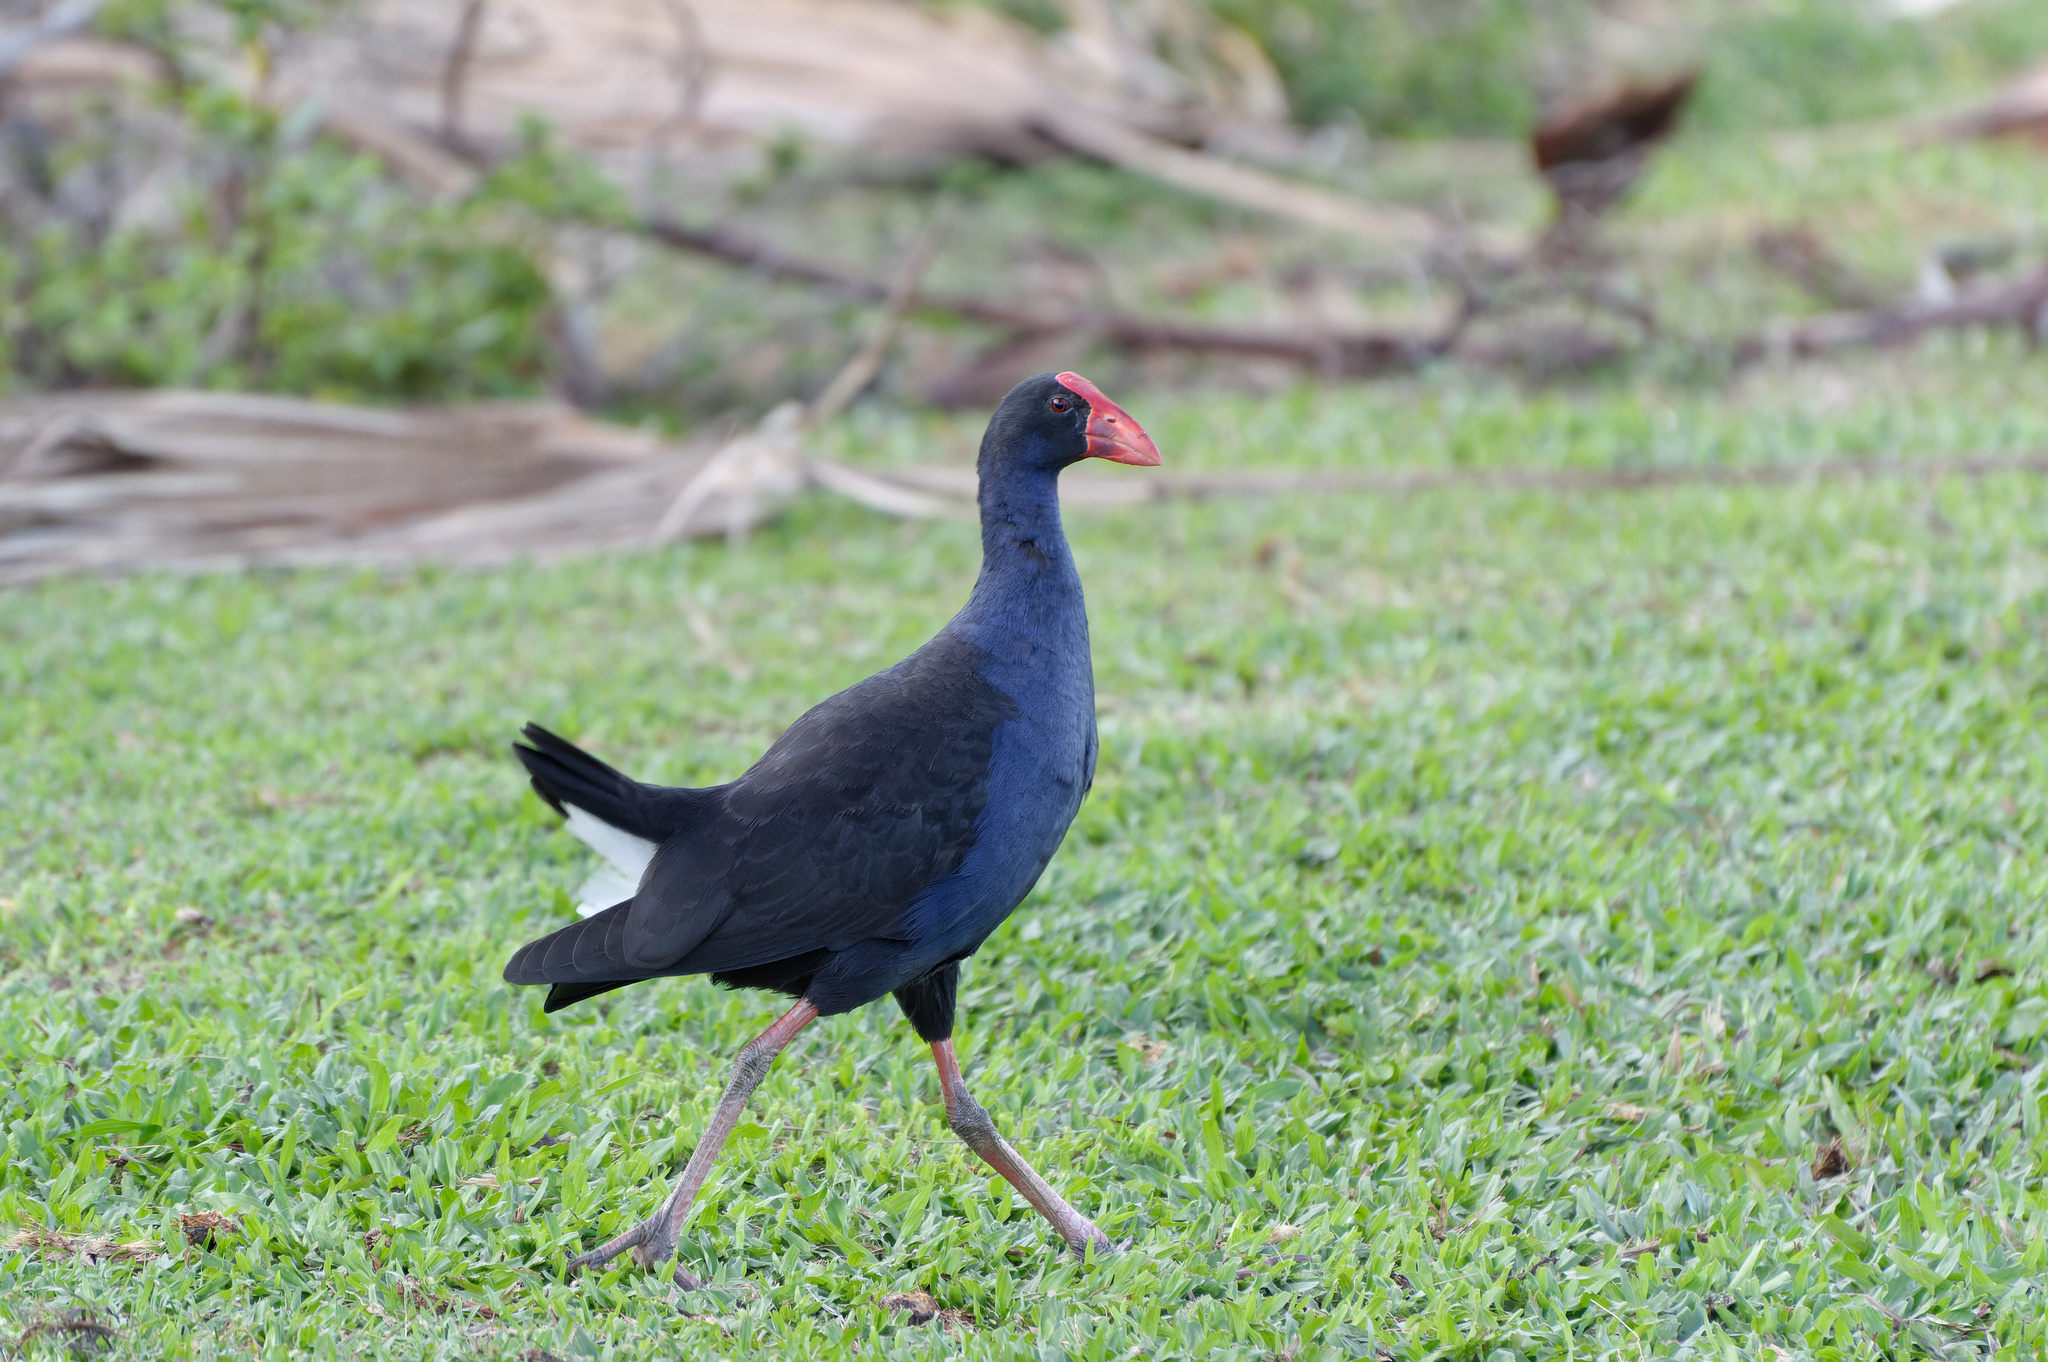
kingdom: Animalia
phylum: Chordata
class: Aves
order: Gruiformes
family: Rallidae
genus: Porphyrio
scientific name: Porphyrio melanotus
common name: Australasian swamphen
